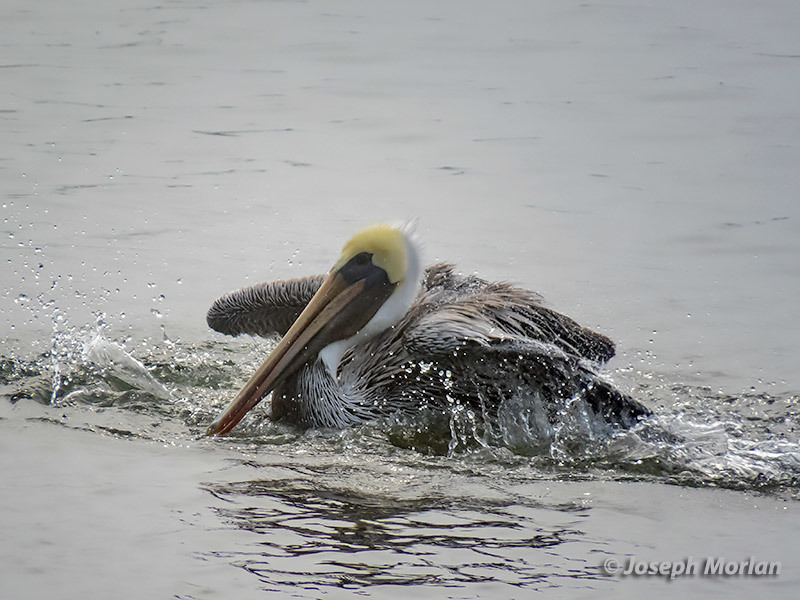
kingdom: Animalia
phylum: Chordata
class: Aves
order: Pelecaniformes
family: Pelecanidae
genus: Pelecanus
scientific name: Pelecanus occidentalis
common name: Brown pelican
